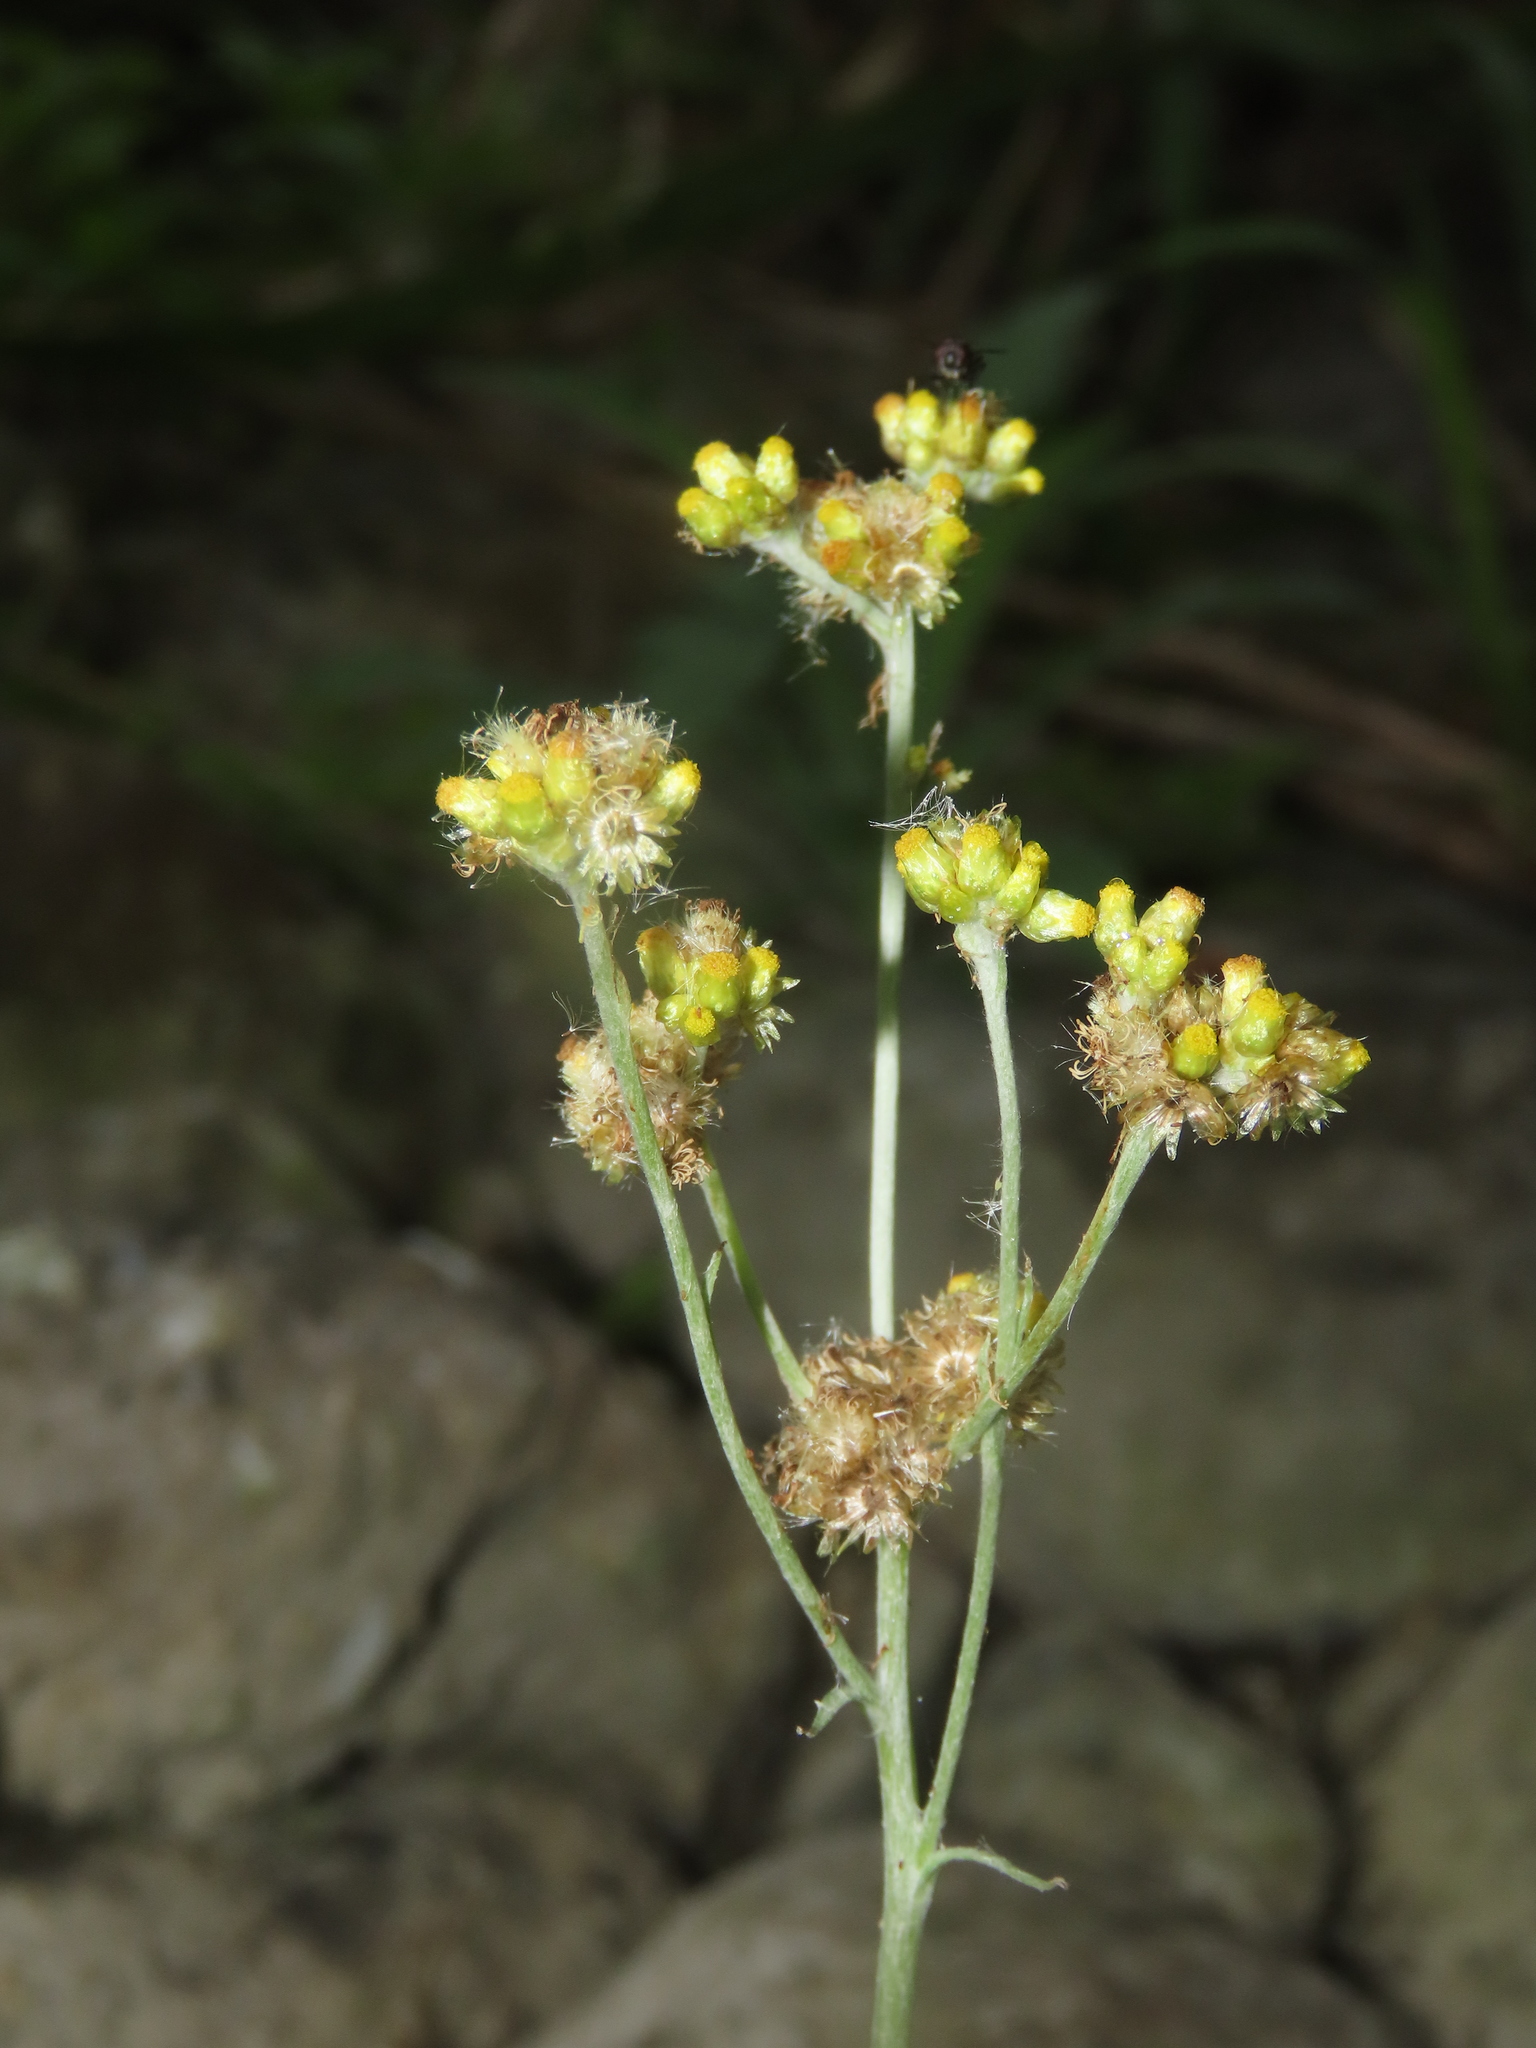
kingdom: Plantae
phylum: Tracheophyta
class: Magnoliopsida
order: Asterales
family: Asteraceae
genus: Pseudognaphalium
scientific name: Pseudognaphalium affine
